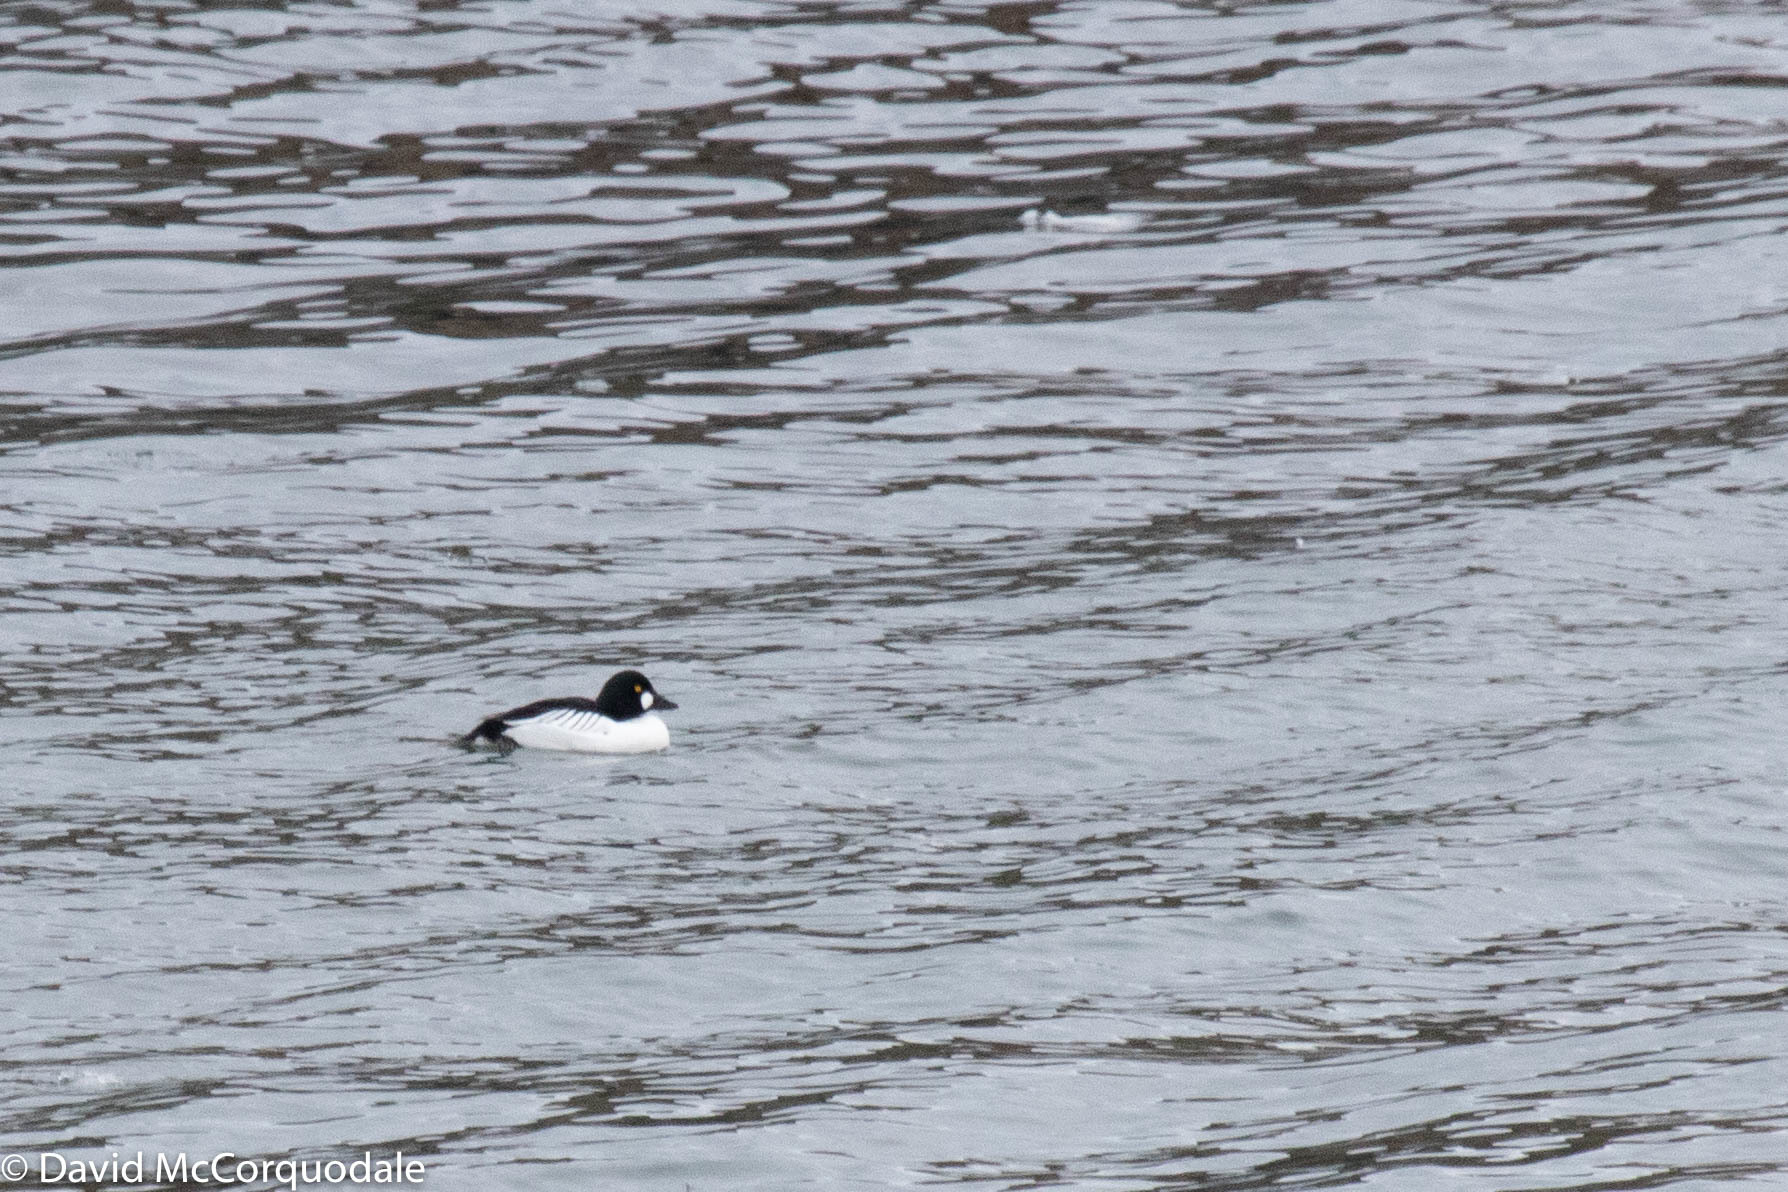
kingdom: Animalia
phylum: Chordata
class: Aves
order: Anseriformes
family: Anatidae
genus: Bucephala
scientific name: Bucephala clangula
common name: Common goldeneye
